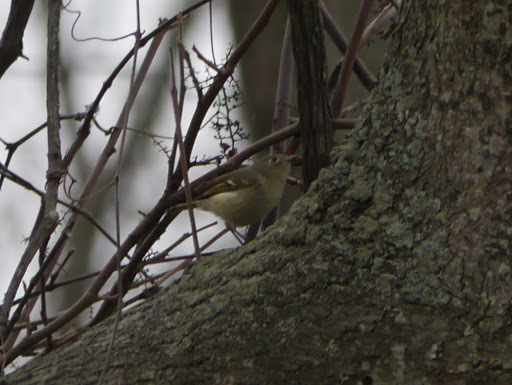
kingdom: Animalia
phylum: Chordata
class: Aves
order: Passeriformes
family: Regulidae
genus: Regulus
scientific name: Regulus calendula
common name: Ruby-crowned kinglet
